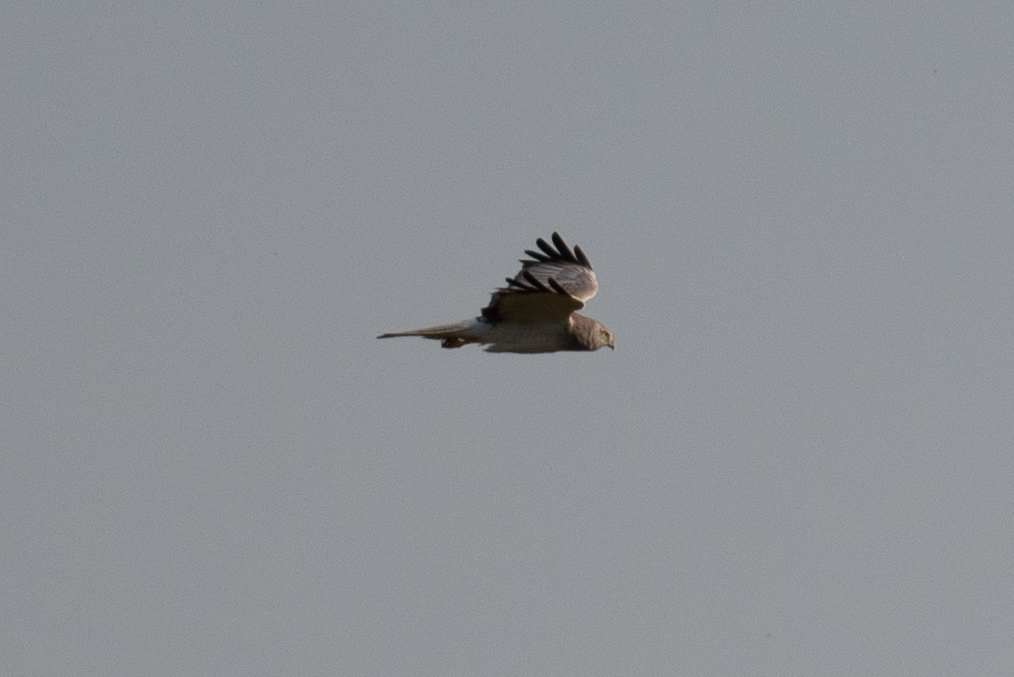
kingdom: Animalia
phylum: Chordata
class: Aves
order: Accipitriformes
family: Accipitridae
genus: Circus
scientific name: Circus cyaneus
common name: Hen harrier
